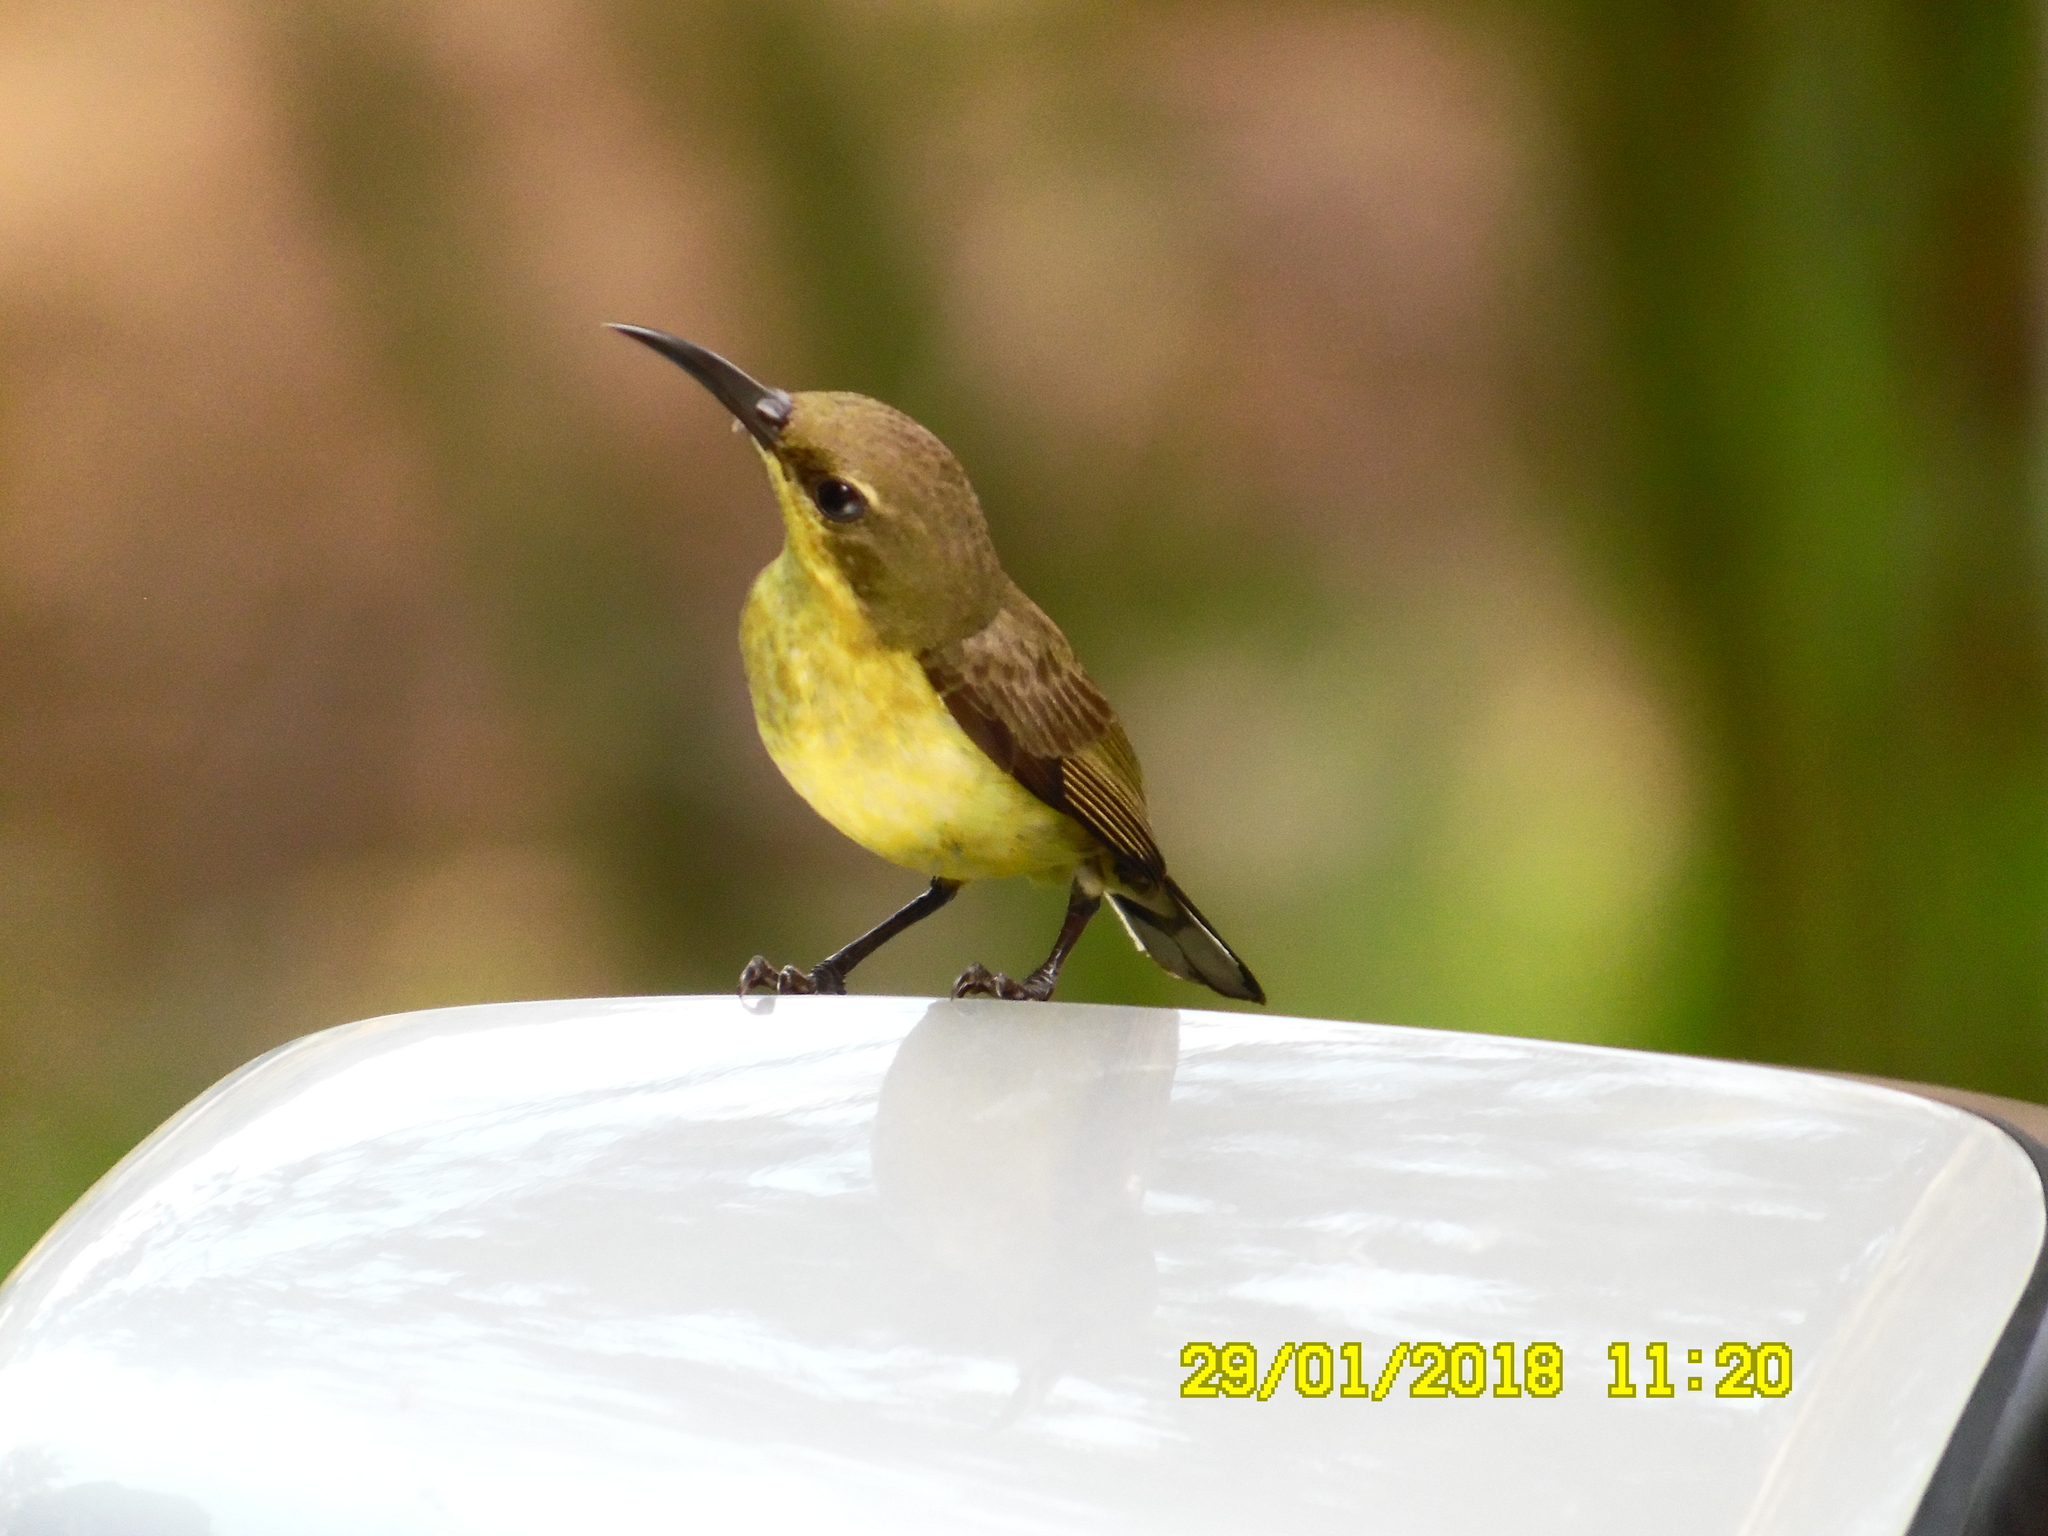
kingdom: Animalia
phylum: Chordata
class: Aves
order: Passeriformes
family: Nectariniidae
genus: Cinnyris
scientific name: Cinnyris
